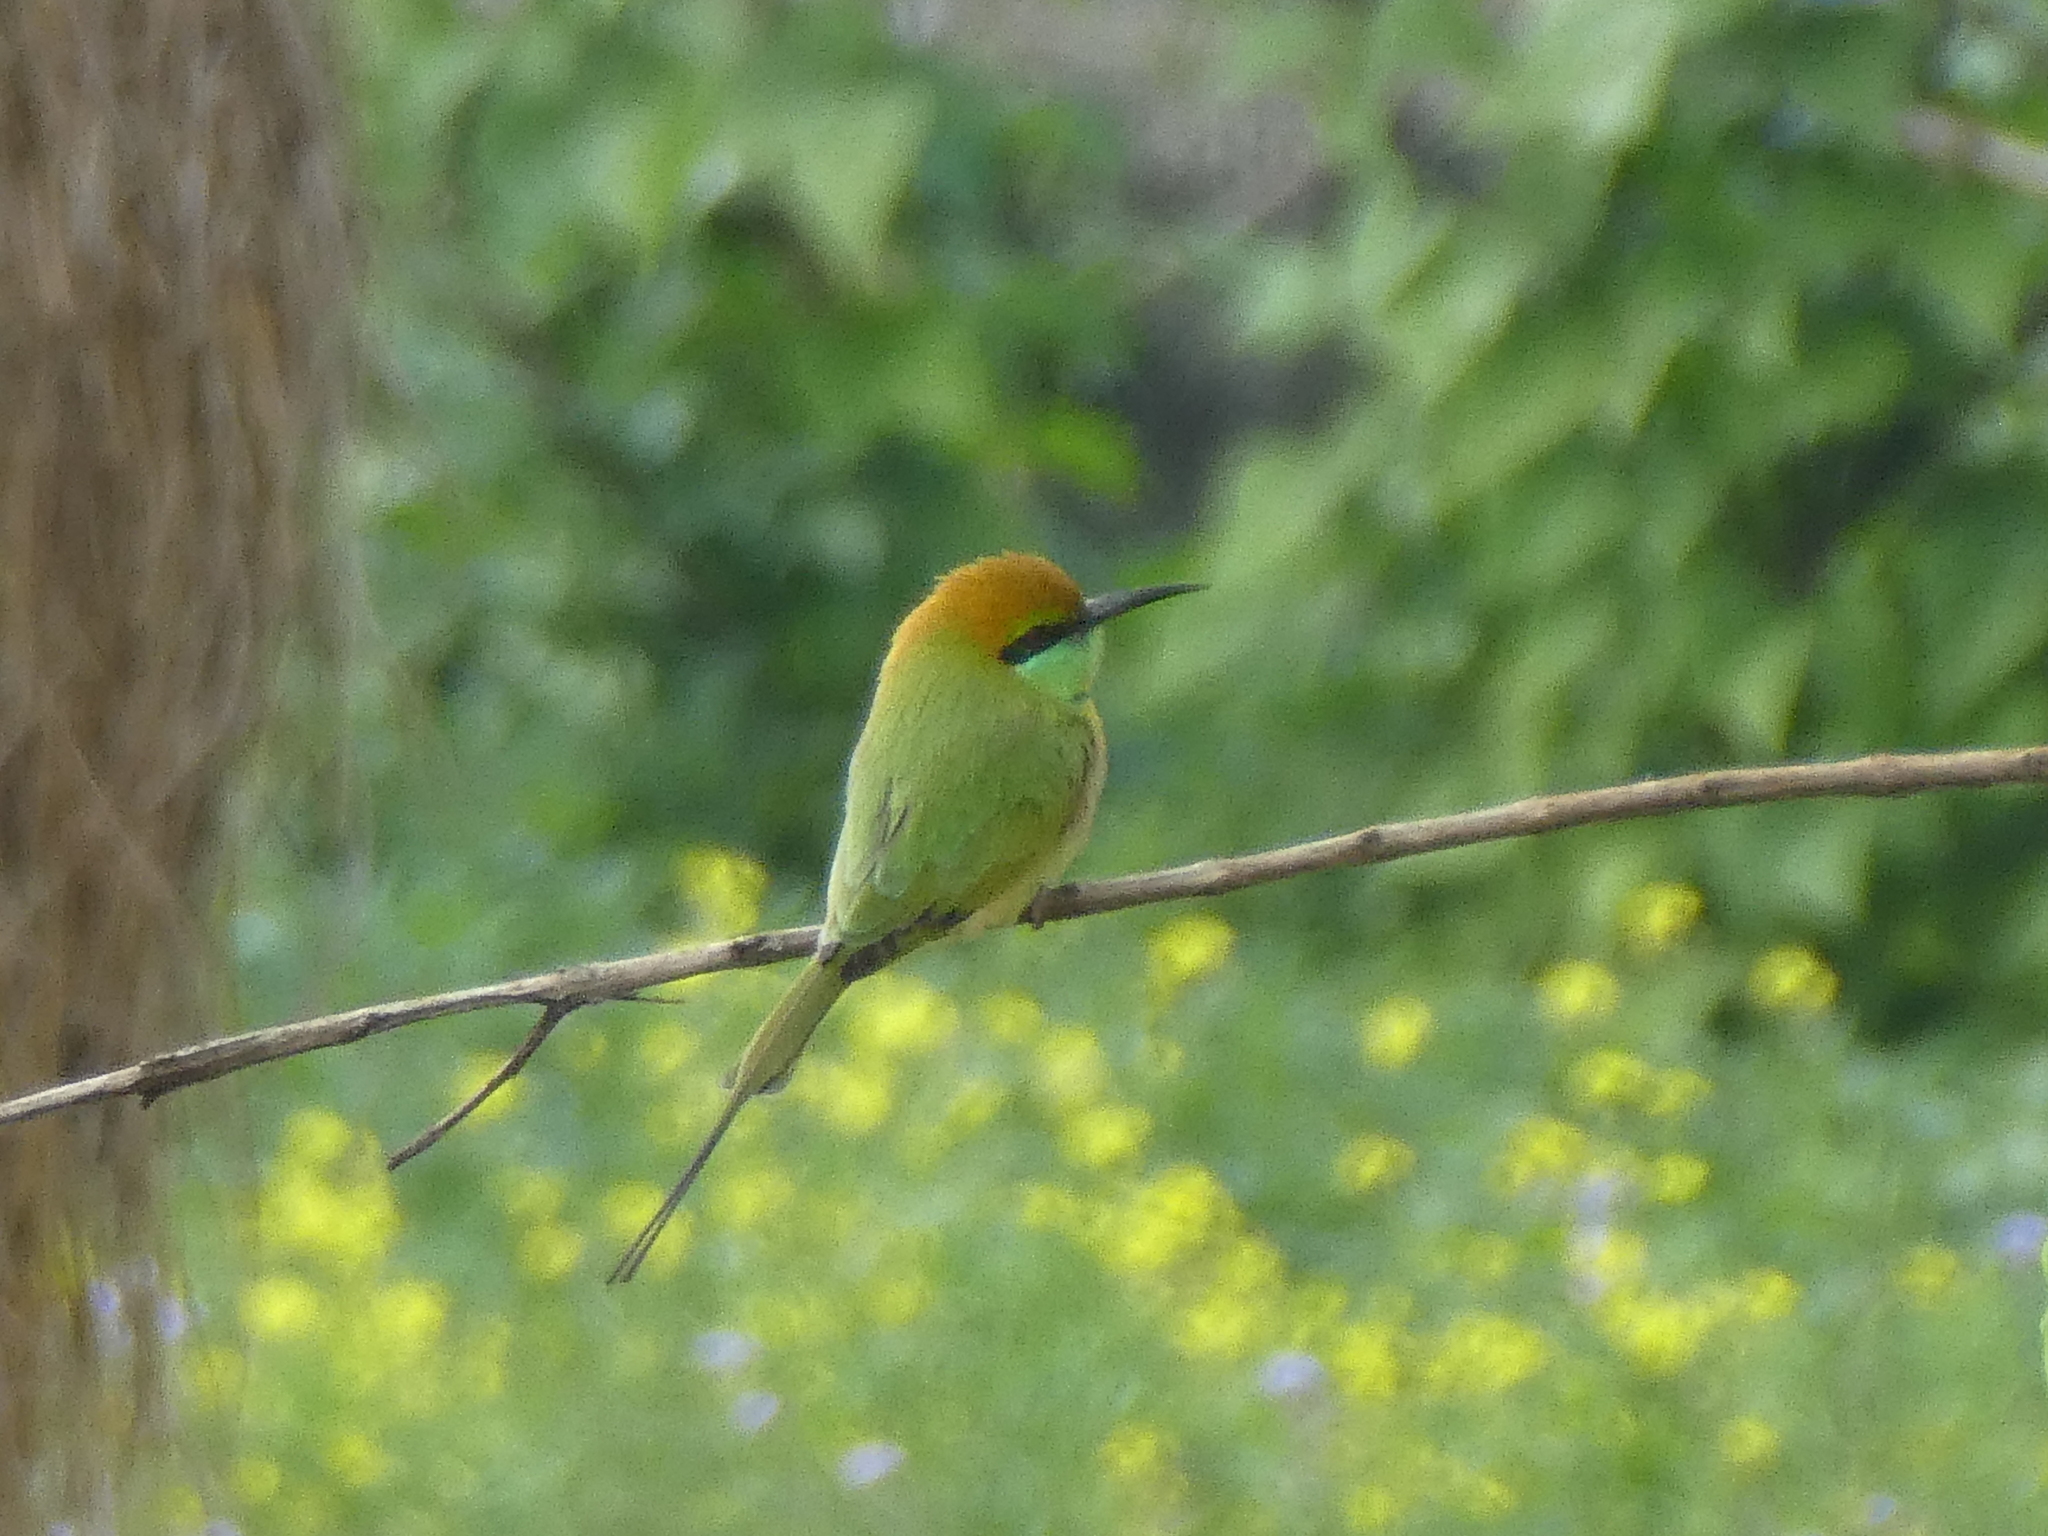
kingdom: Animalia
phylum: Chordata
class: Aves
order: Coraciiformes
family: Meropidae
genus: Merops
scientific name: Merops orientalis
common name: Green bee-eater
